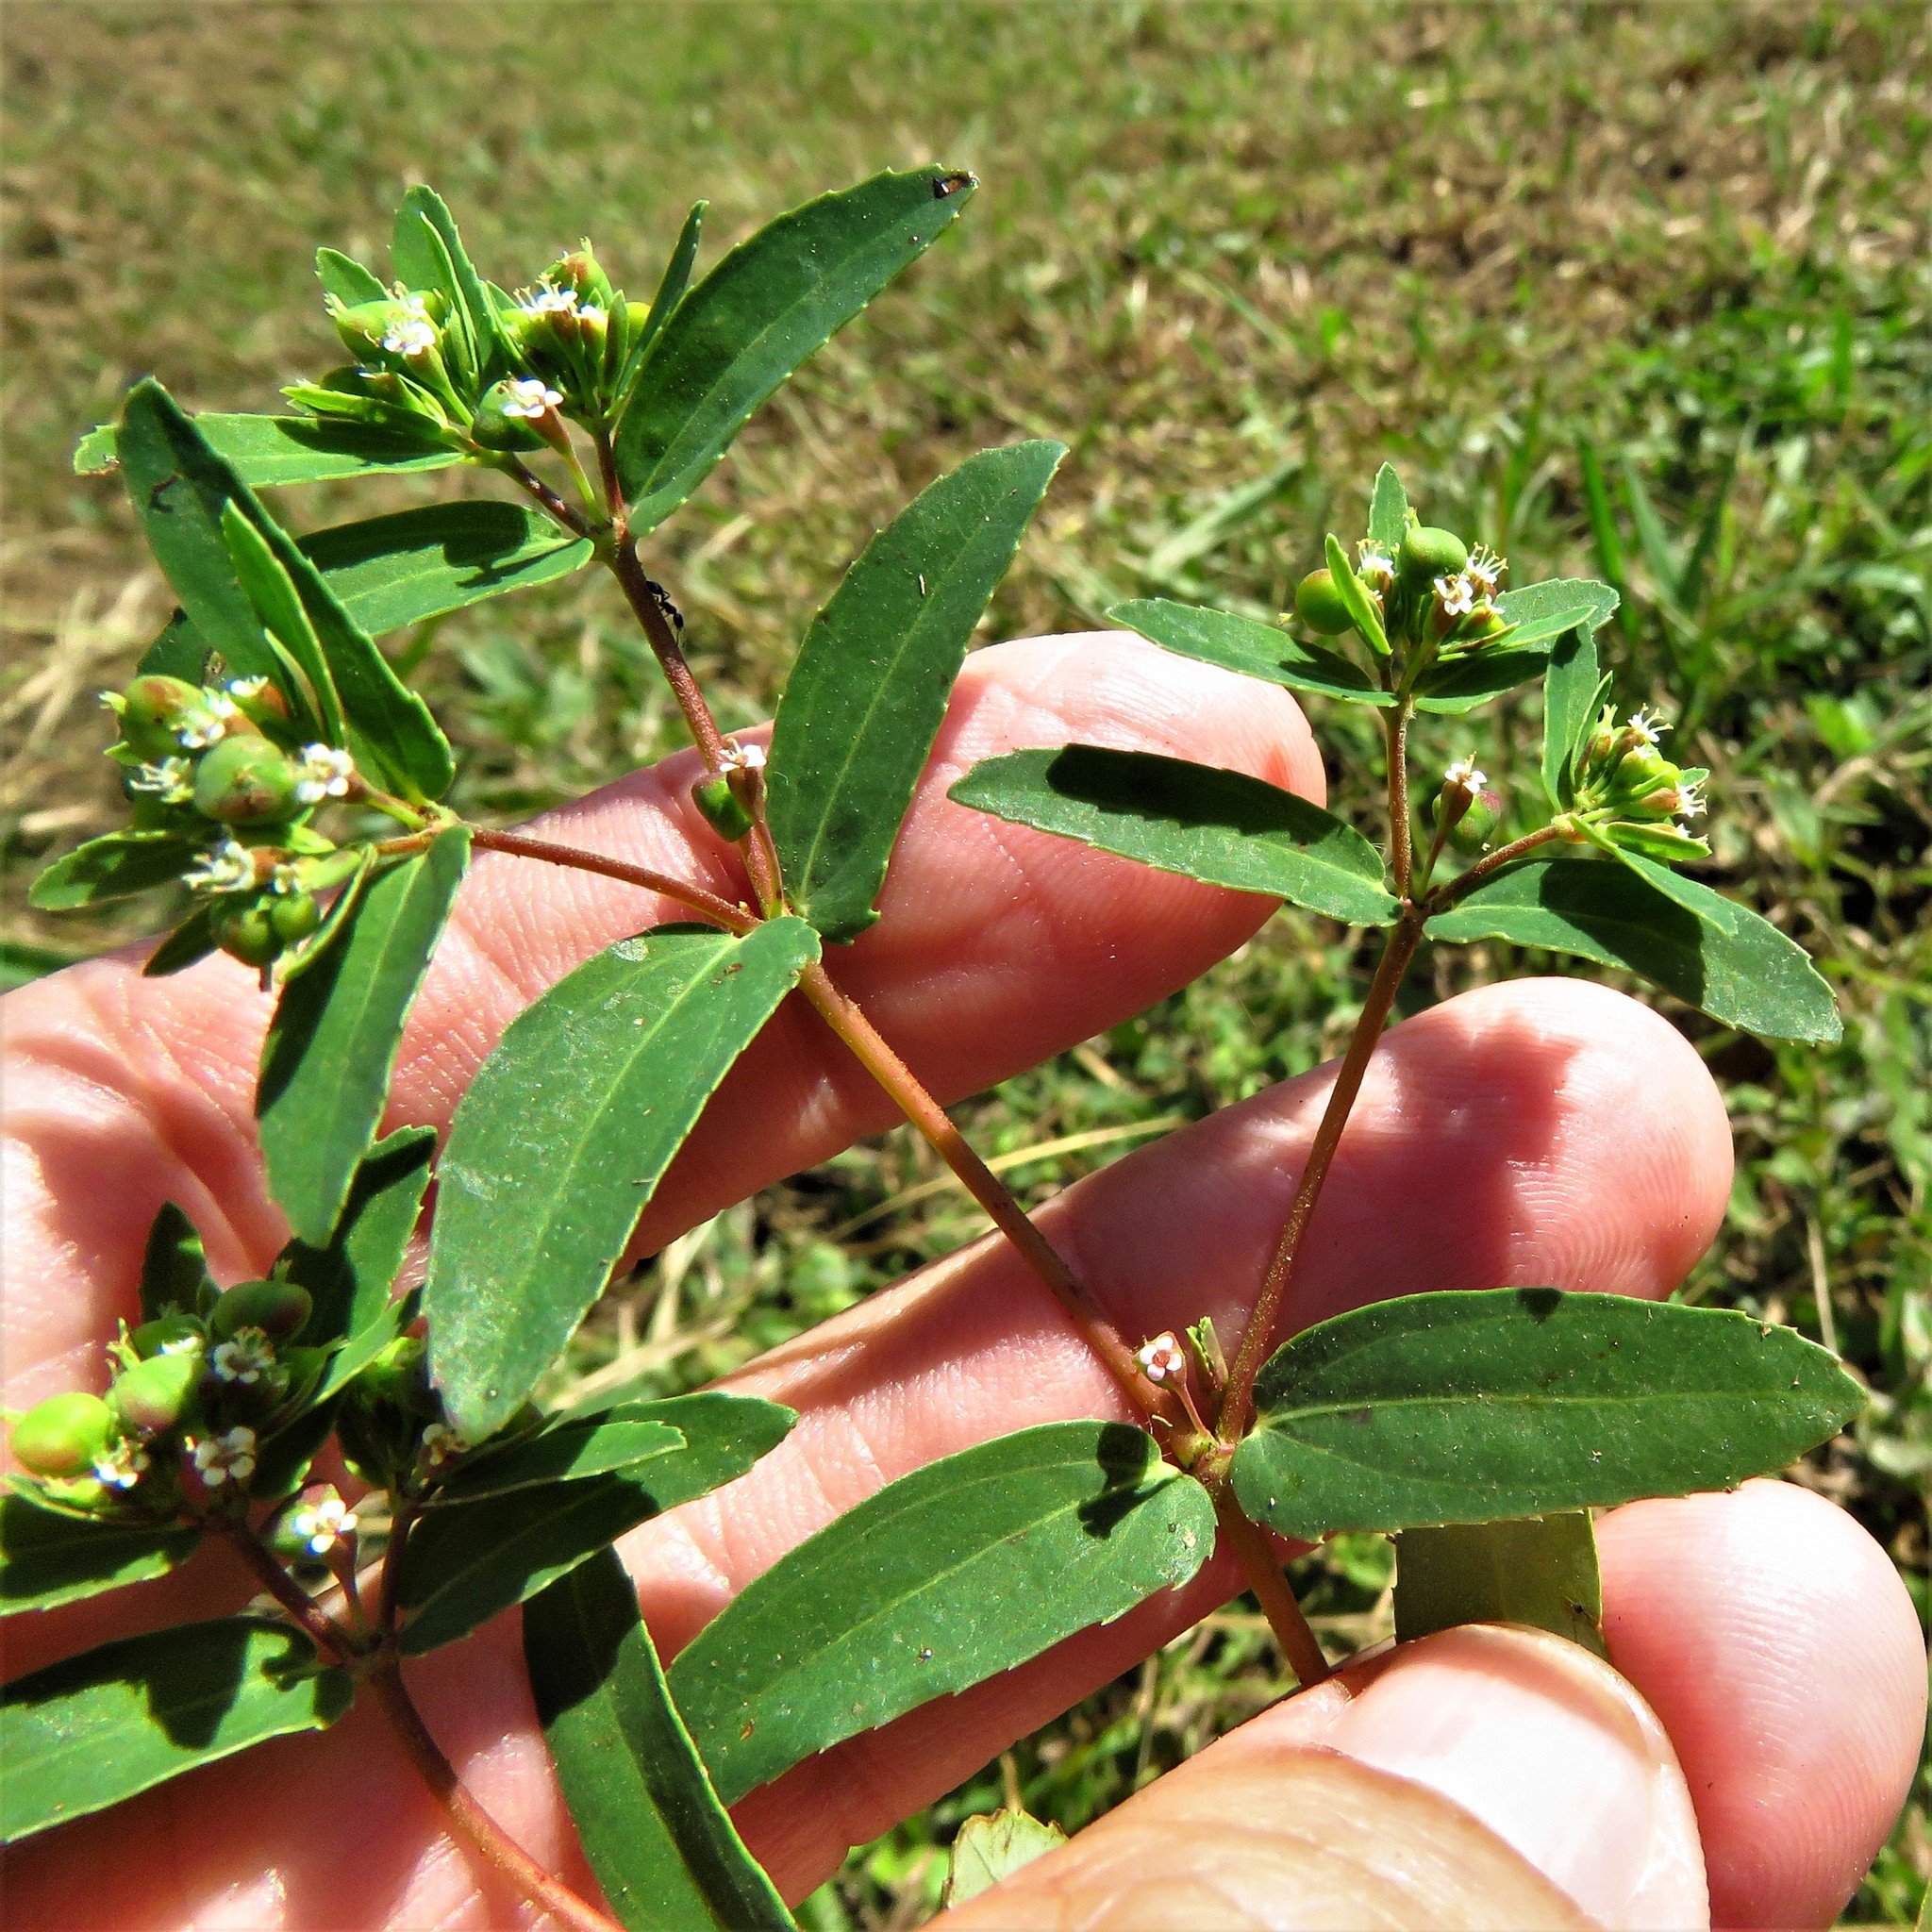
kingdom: Plantae
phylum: Tracheophyta
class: Magnoliopsida
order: Malpighiales
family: Euphorbiaceae
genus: Euphorbia
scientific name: Euphorbia nutans
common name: Eyebane
